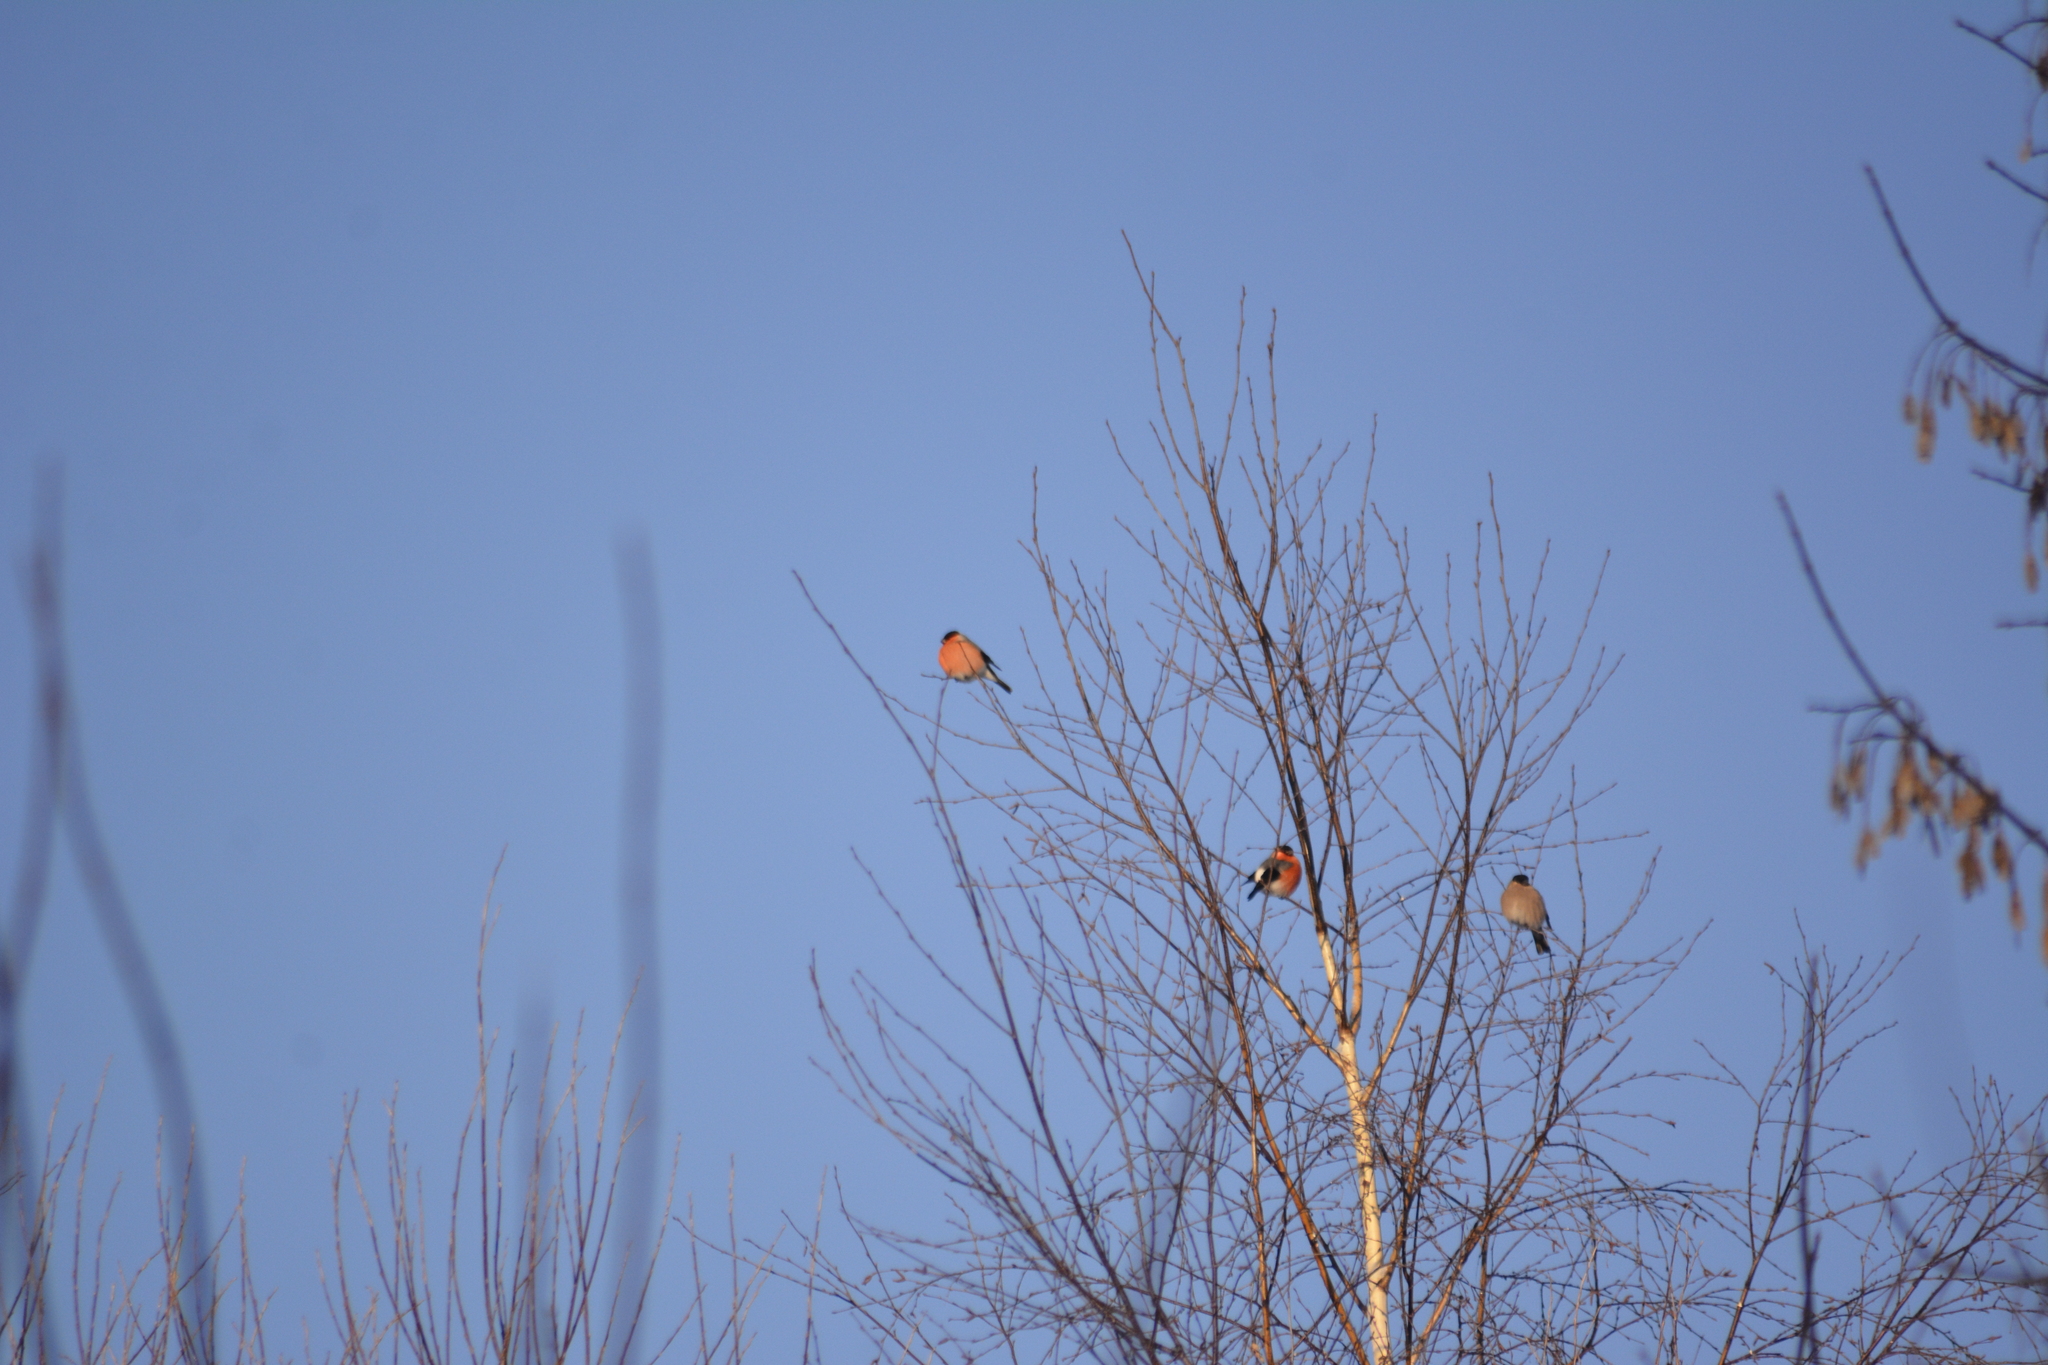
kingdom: Animalia
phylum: Chordata
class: Aves
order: Passeriformes
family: Fringillidae
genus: Pyrrhula
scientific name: Pyrrhula pyrrhula
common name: Eurasian bullfinch
